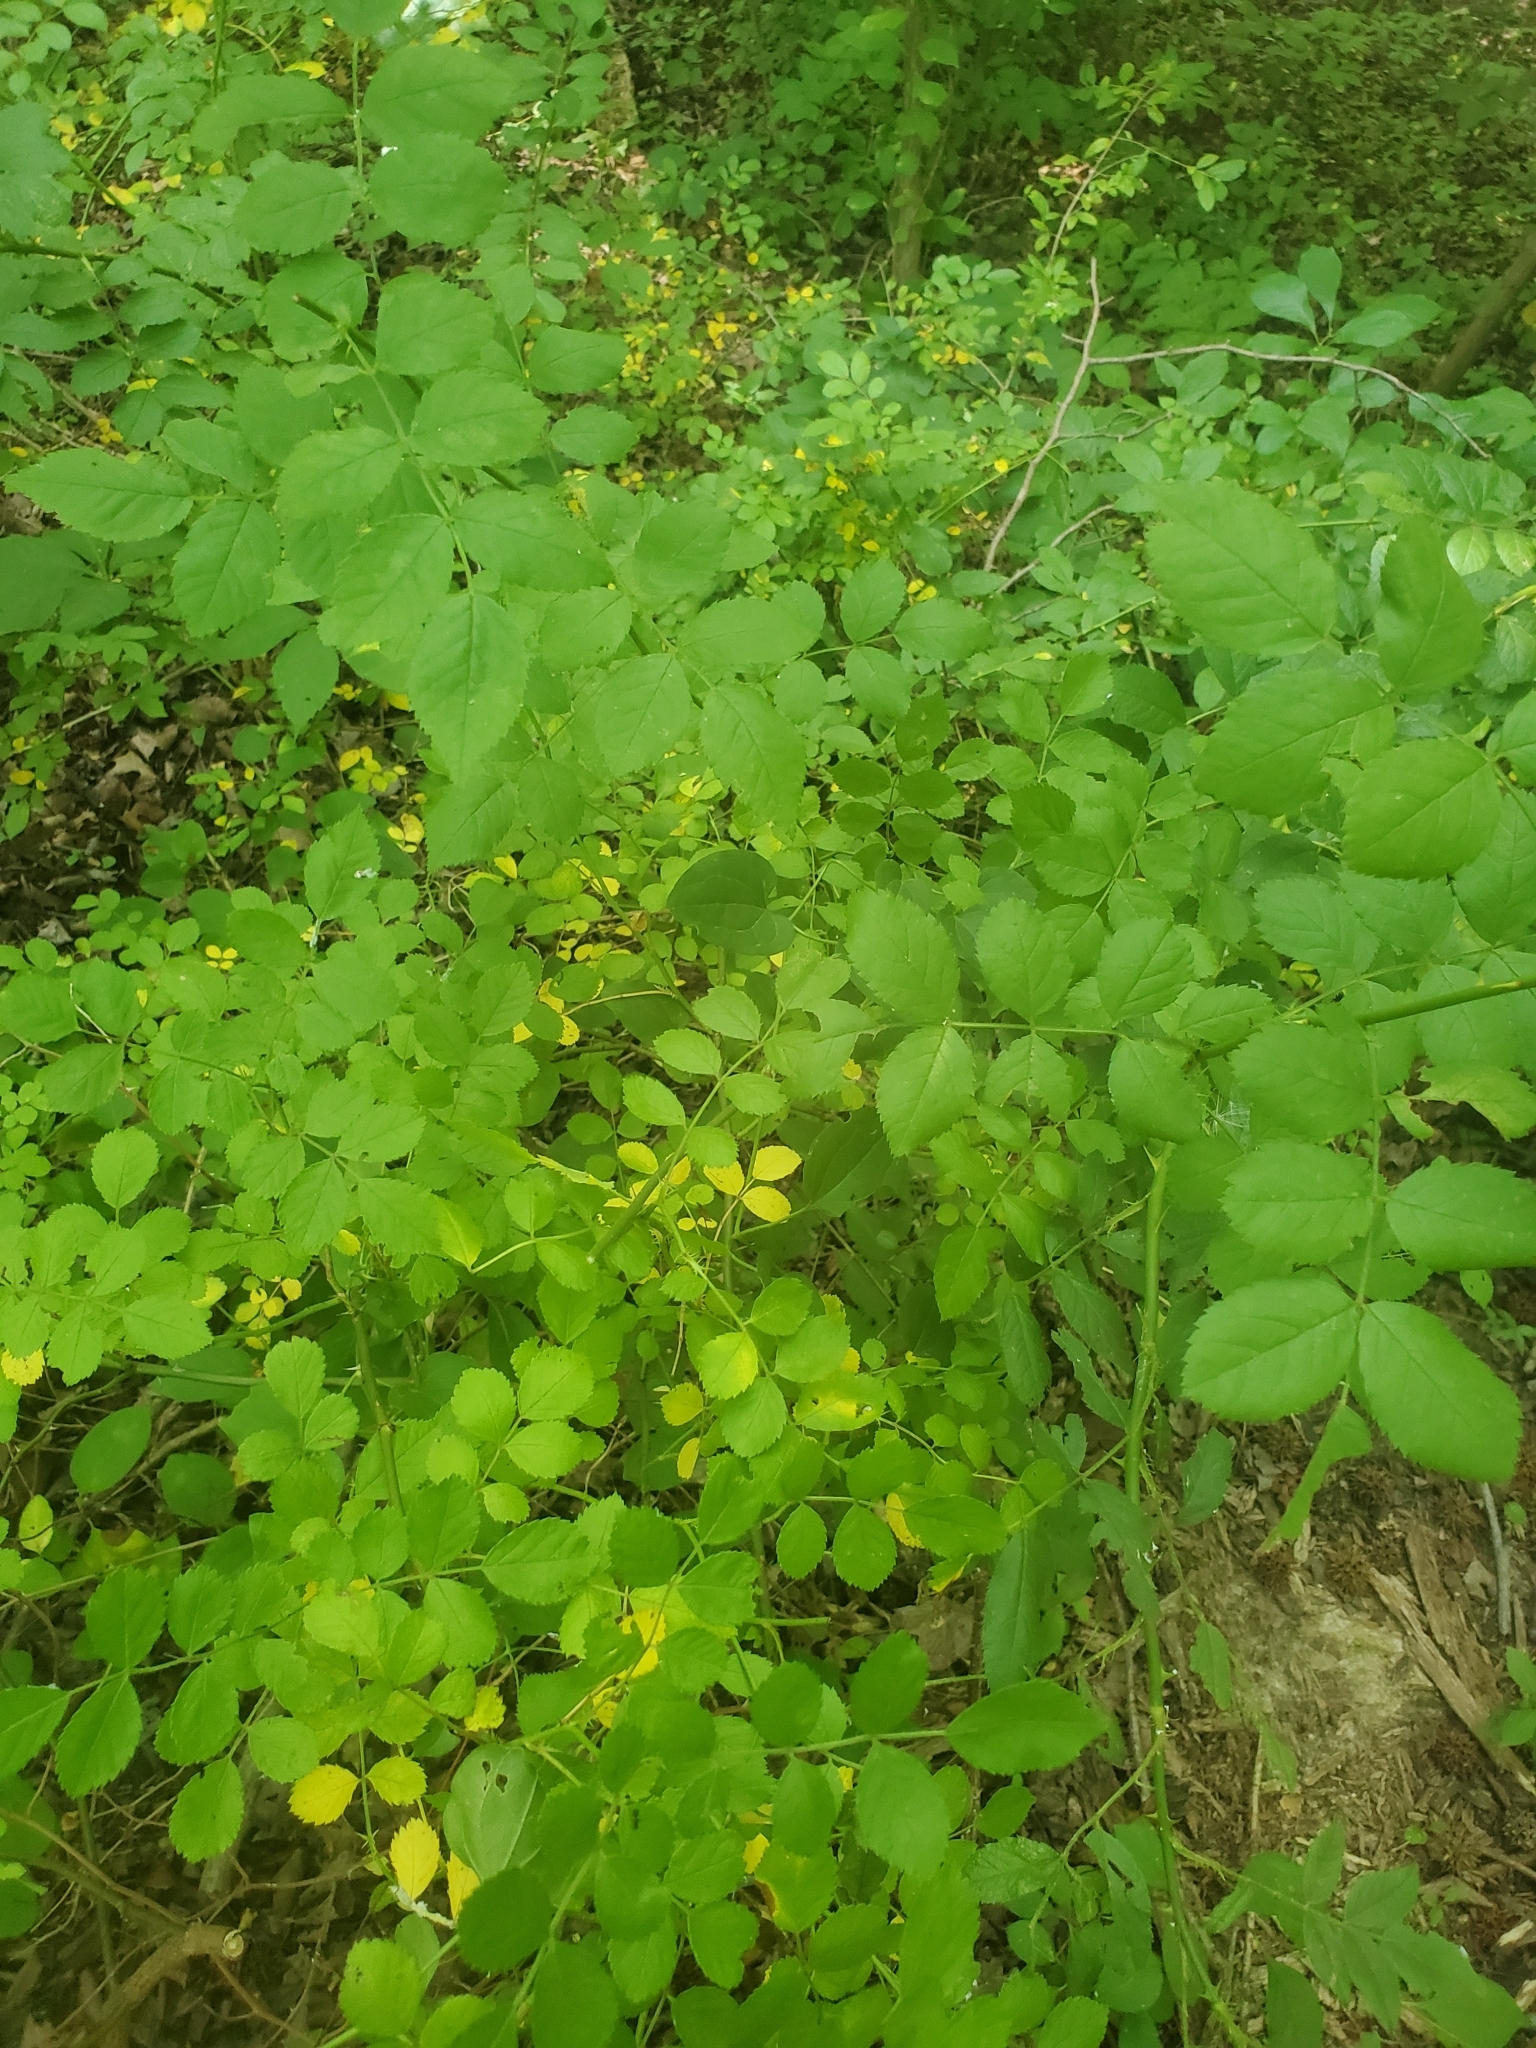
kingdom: Plantae
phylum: Tracheophyta
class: Magnoliopsida
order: Rosales
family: Rosaceae
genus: Rosa
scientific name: Rosa multiflora
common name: Multiflora rose
